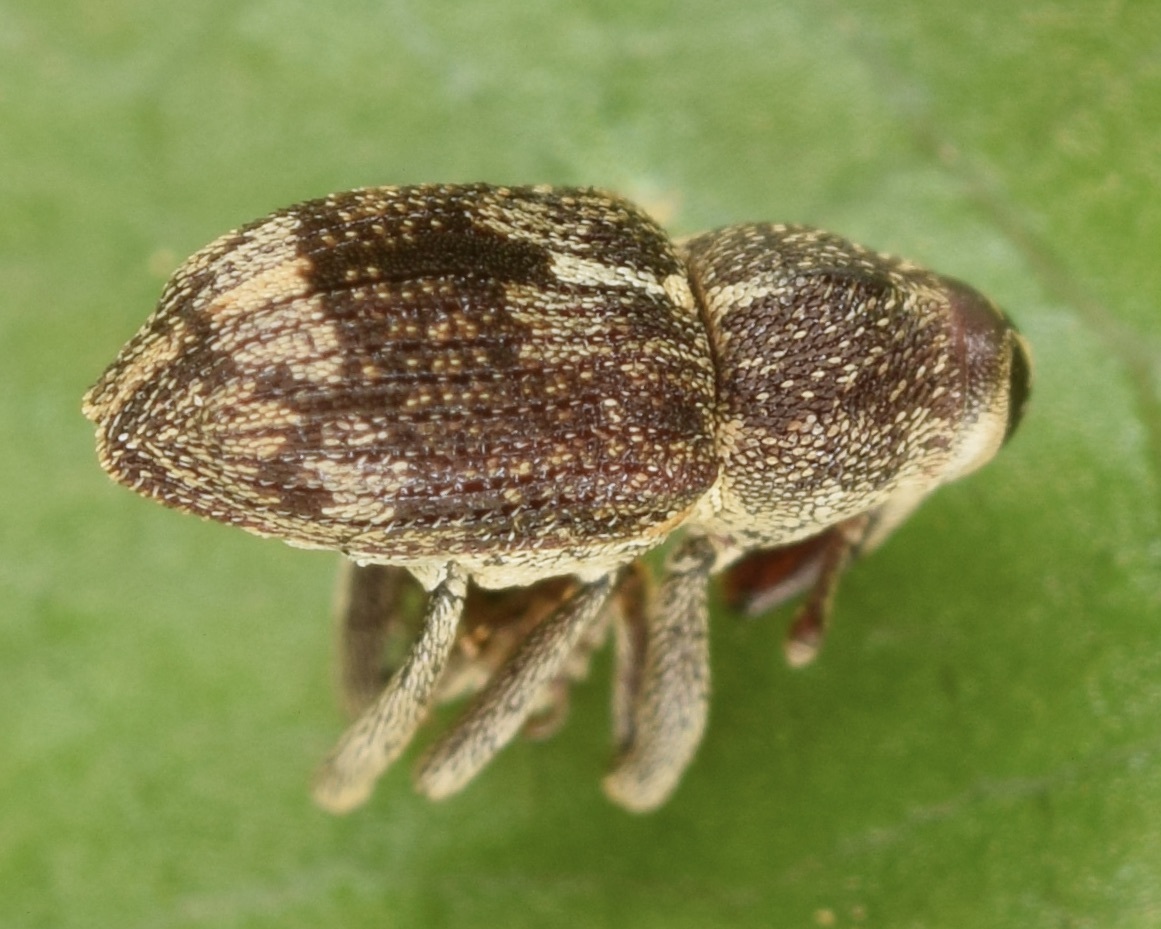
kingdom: Animalia
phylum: Arthropoda
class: Insecta
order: Coleoptera
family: Curculionidae
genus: Acoptus
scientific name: Acoptus suturalis
